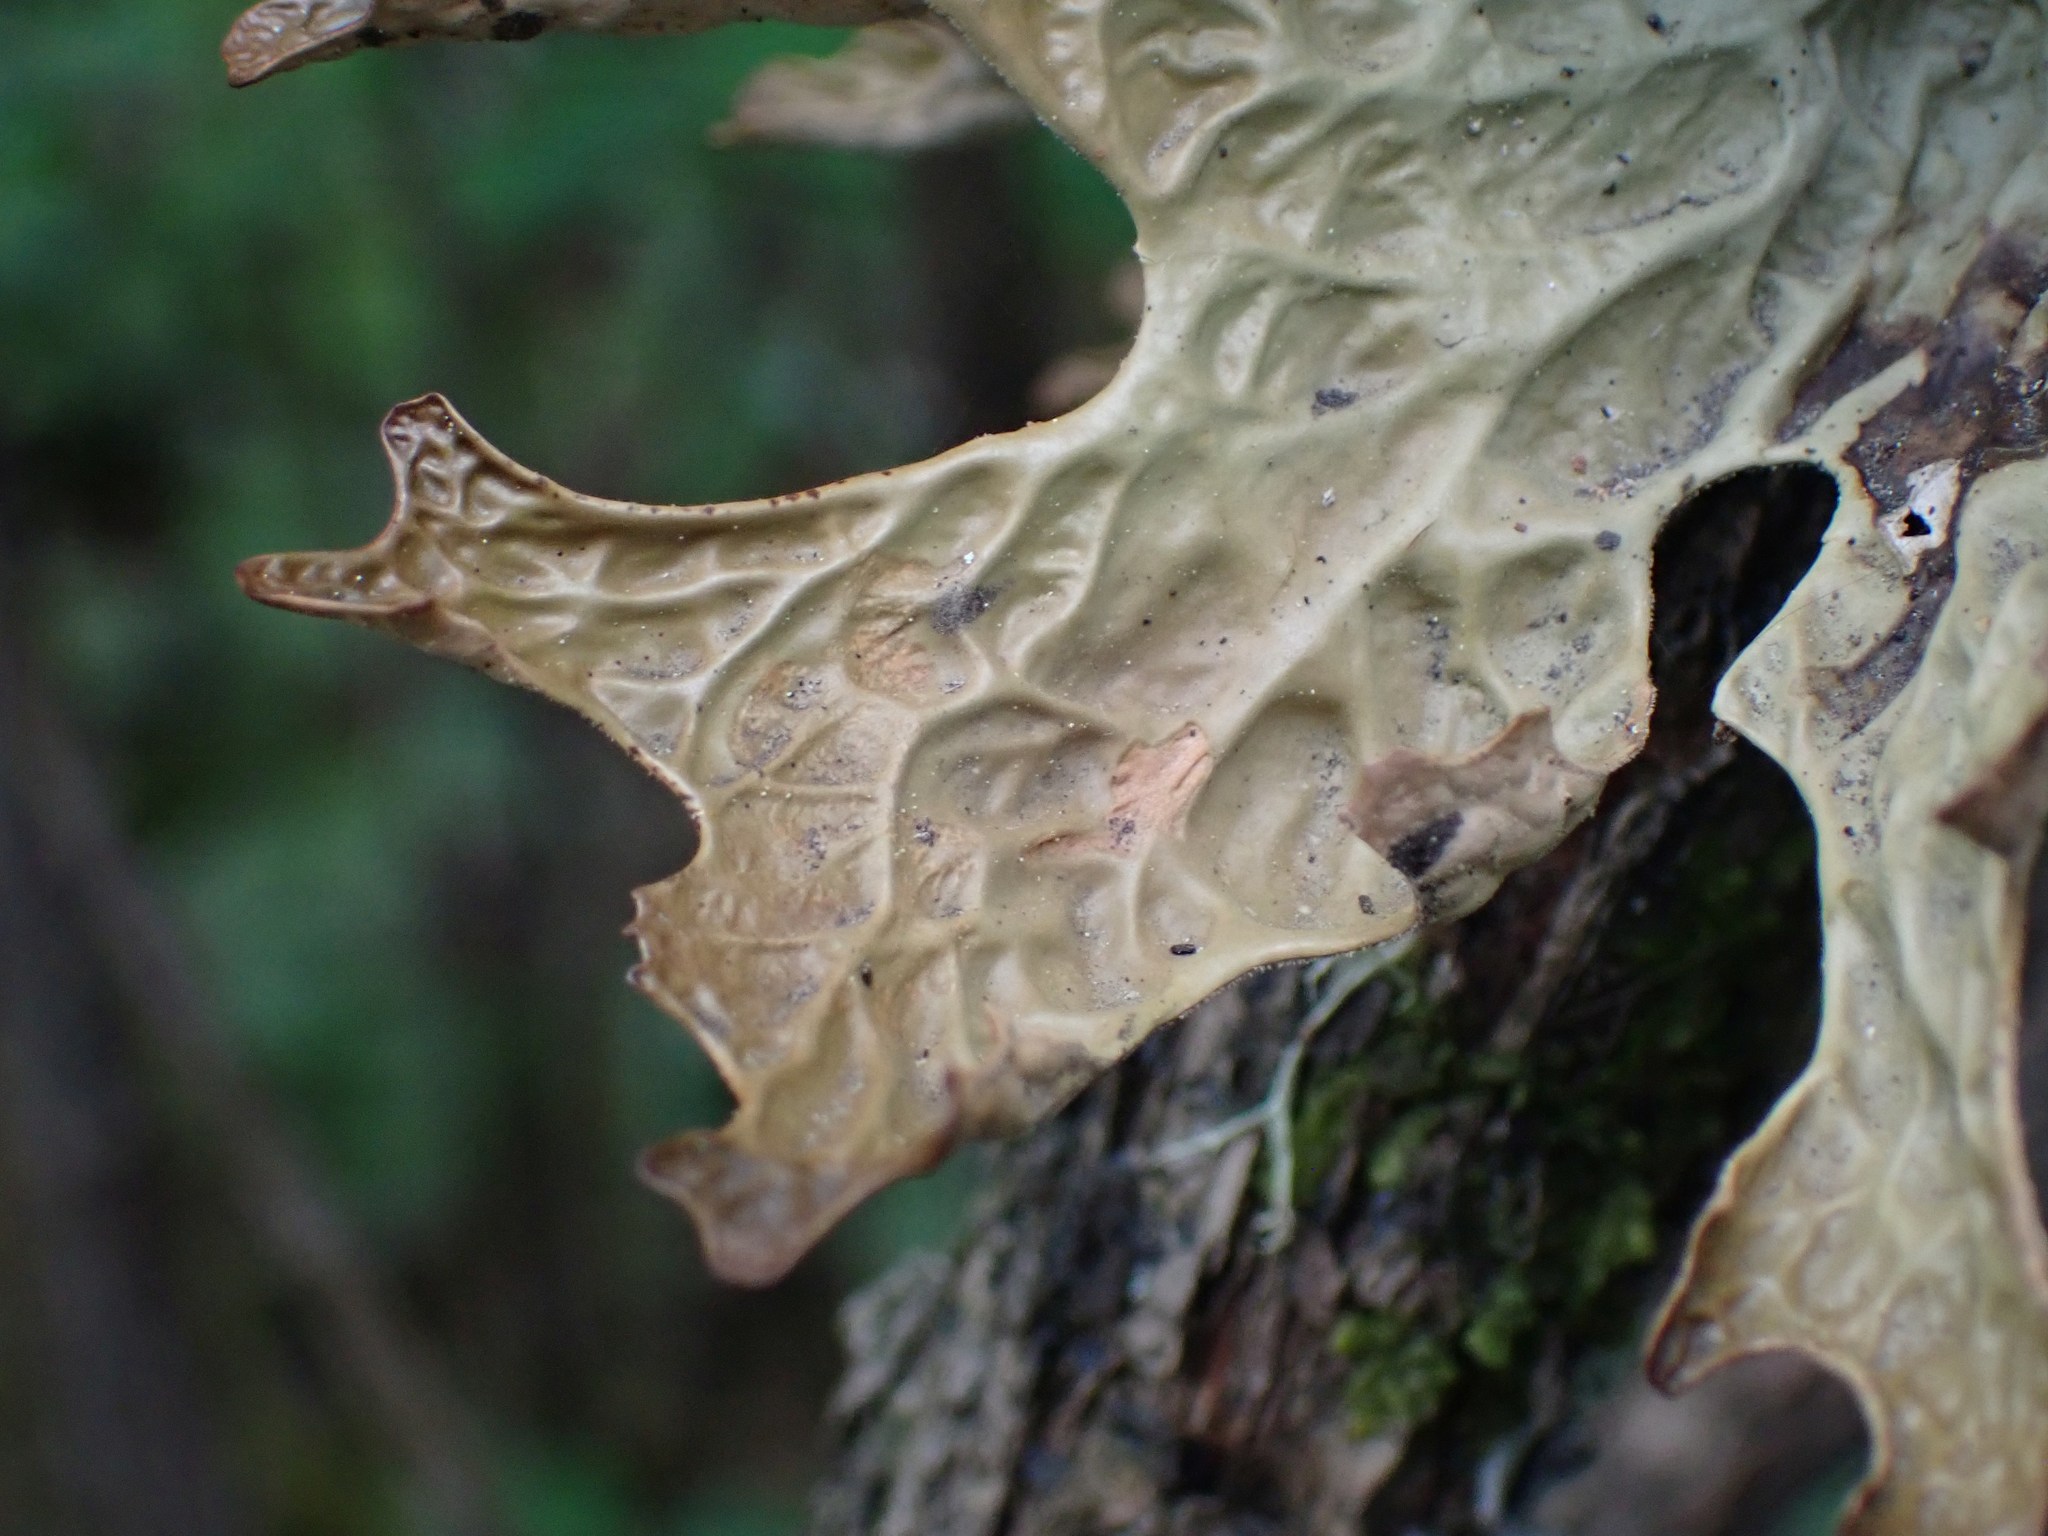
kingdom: Fungi
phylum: Ascomycota
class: Lecanoromycetes
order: Peltigerales
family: Lobariaceae
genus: Lobaria
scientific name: Lobaria pulmonaria
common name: Lungwort
